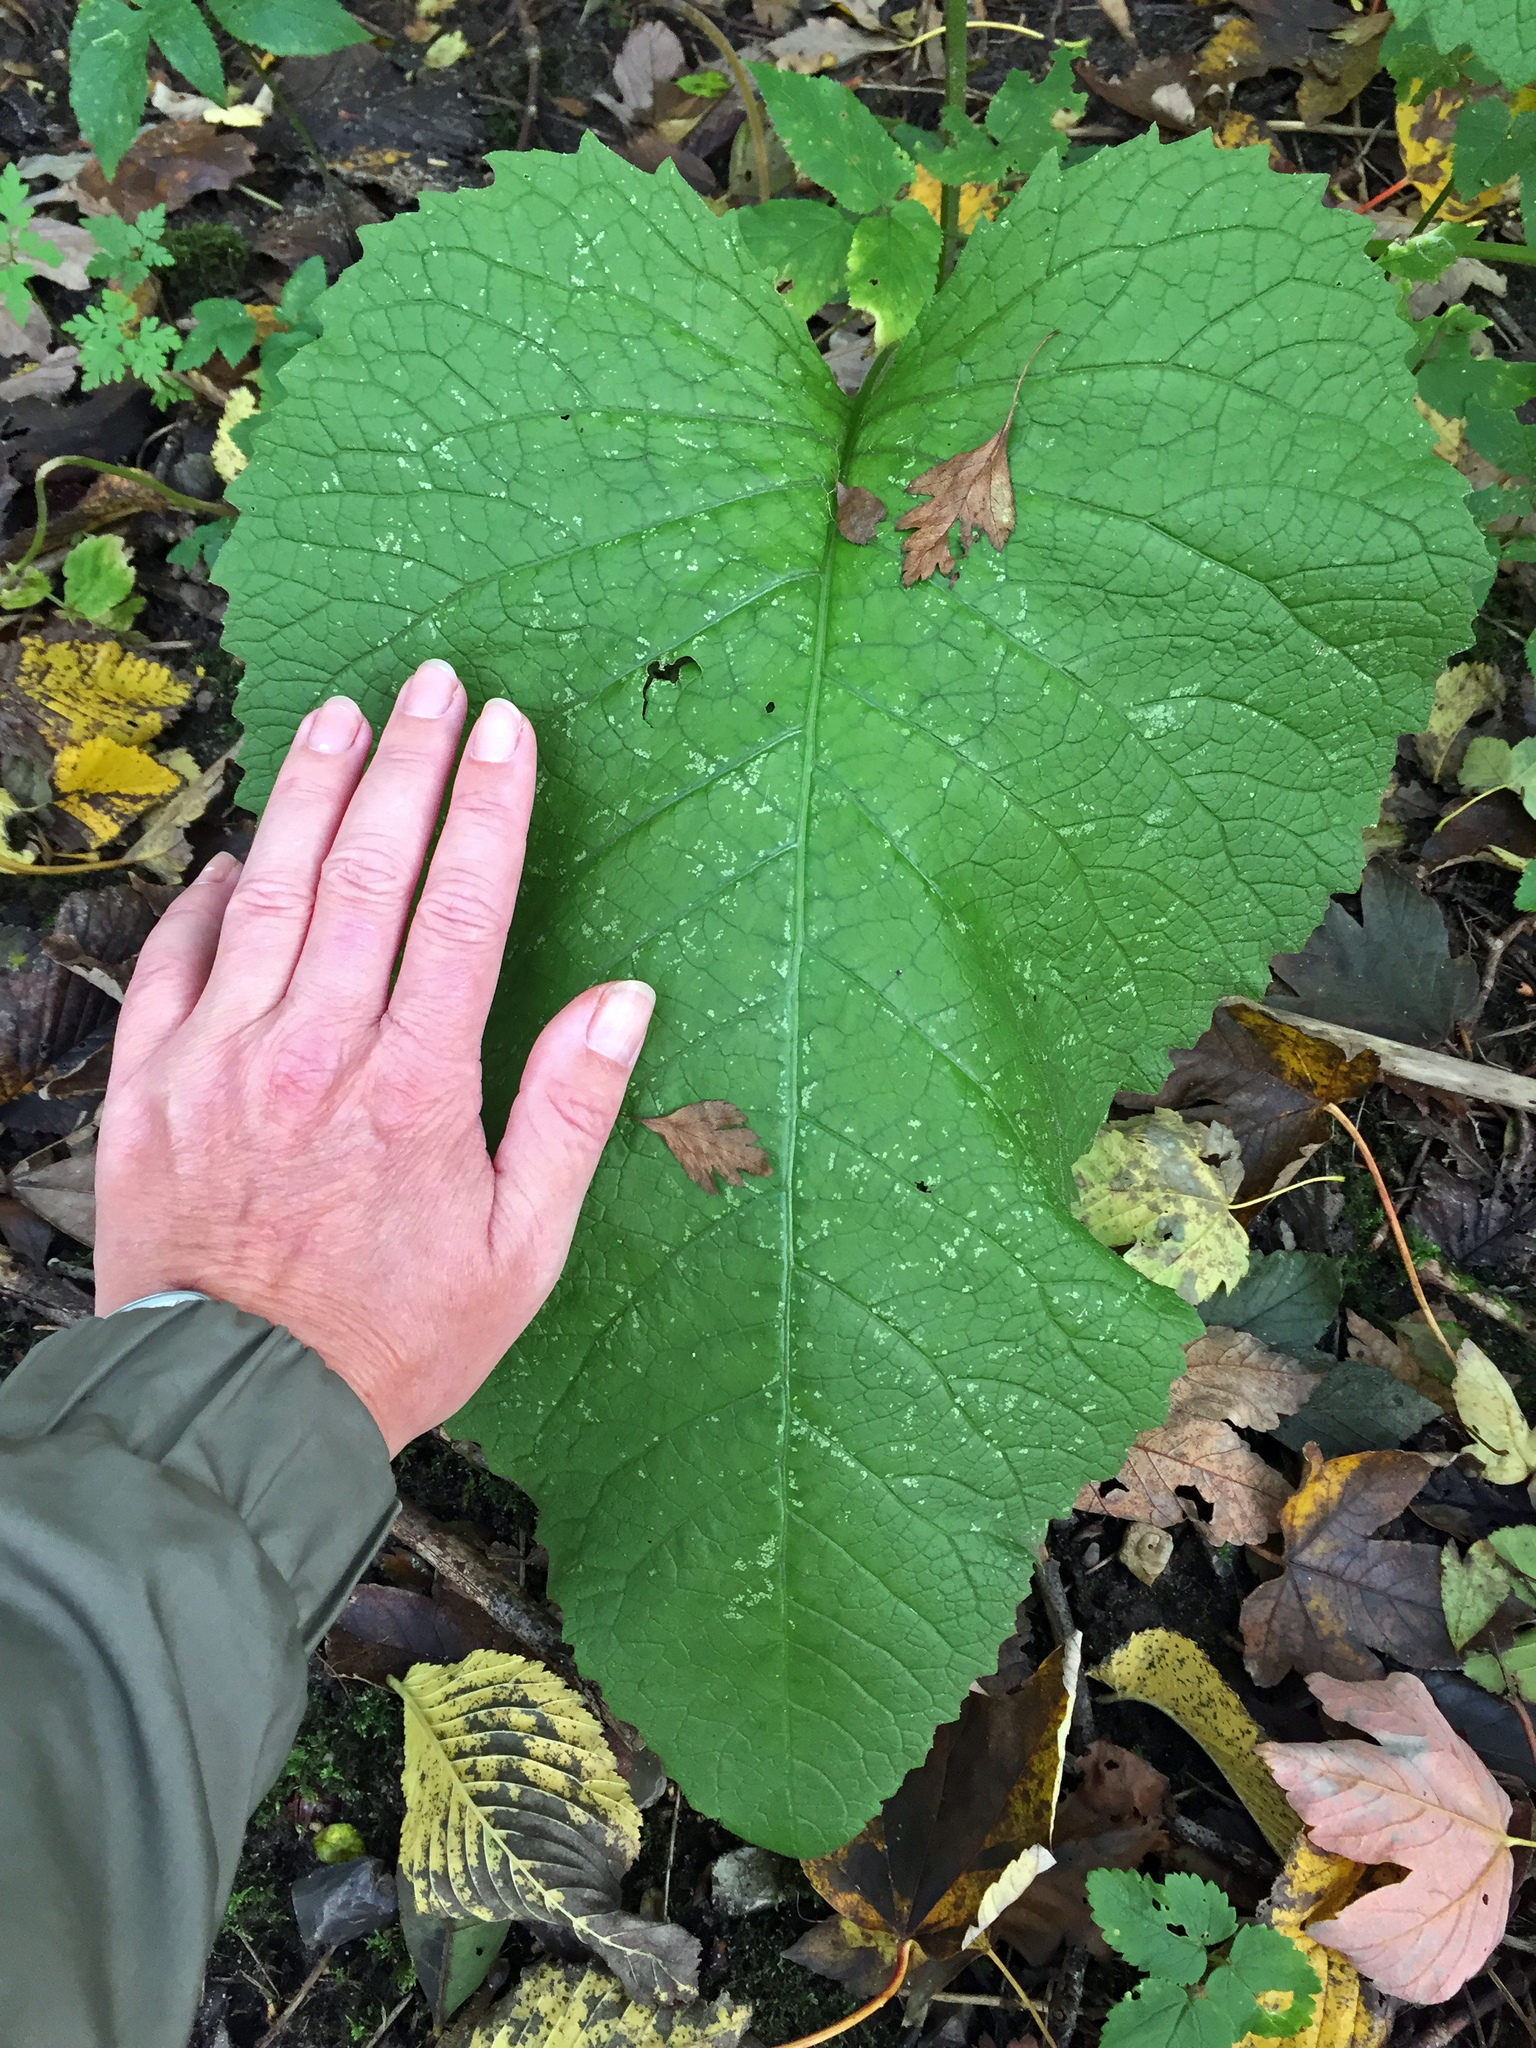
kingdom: Plantae
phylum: Tracheophyta
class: Magnoliopsida
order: Asterales
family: Asteraceae
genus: Arctium
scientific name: Arctium
